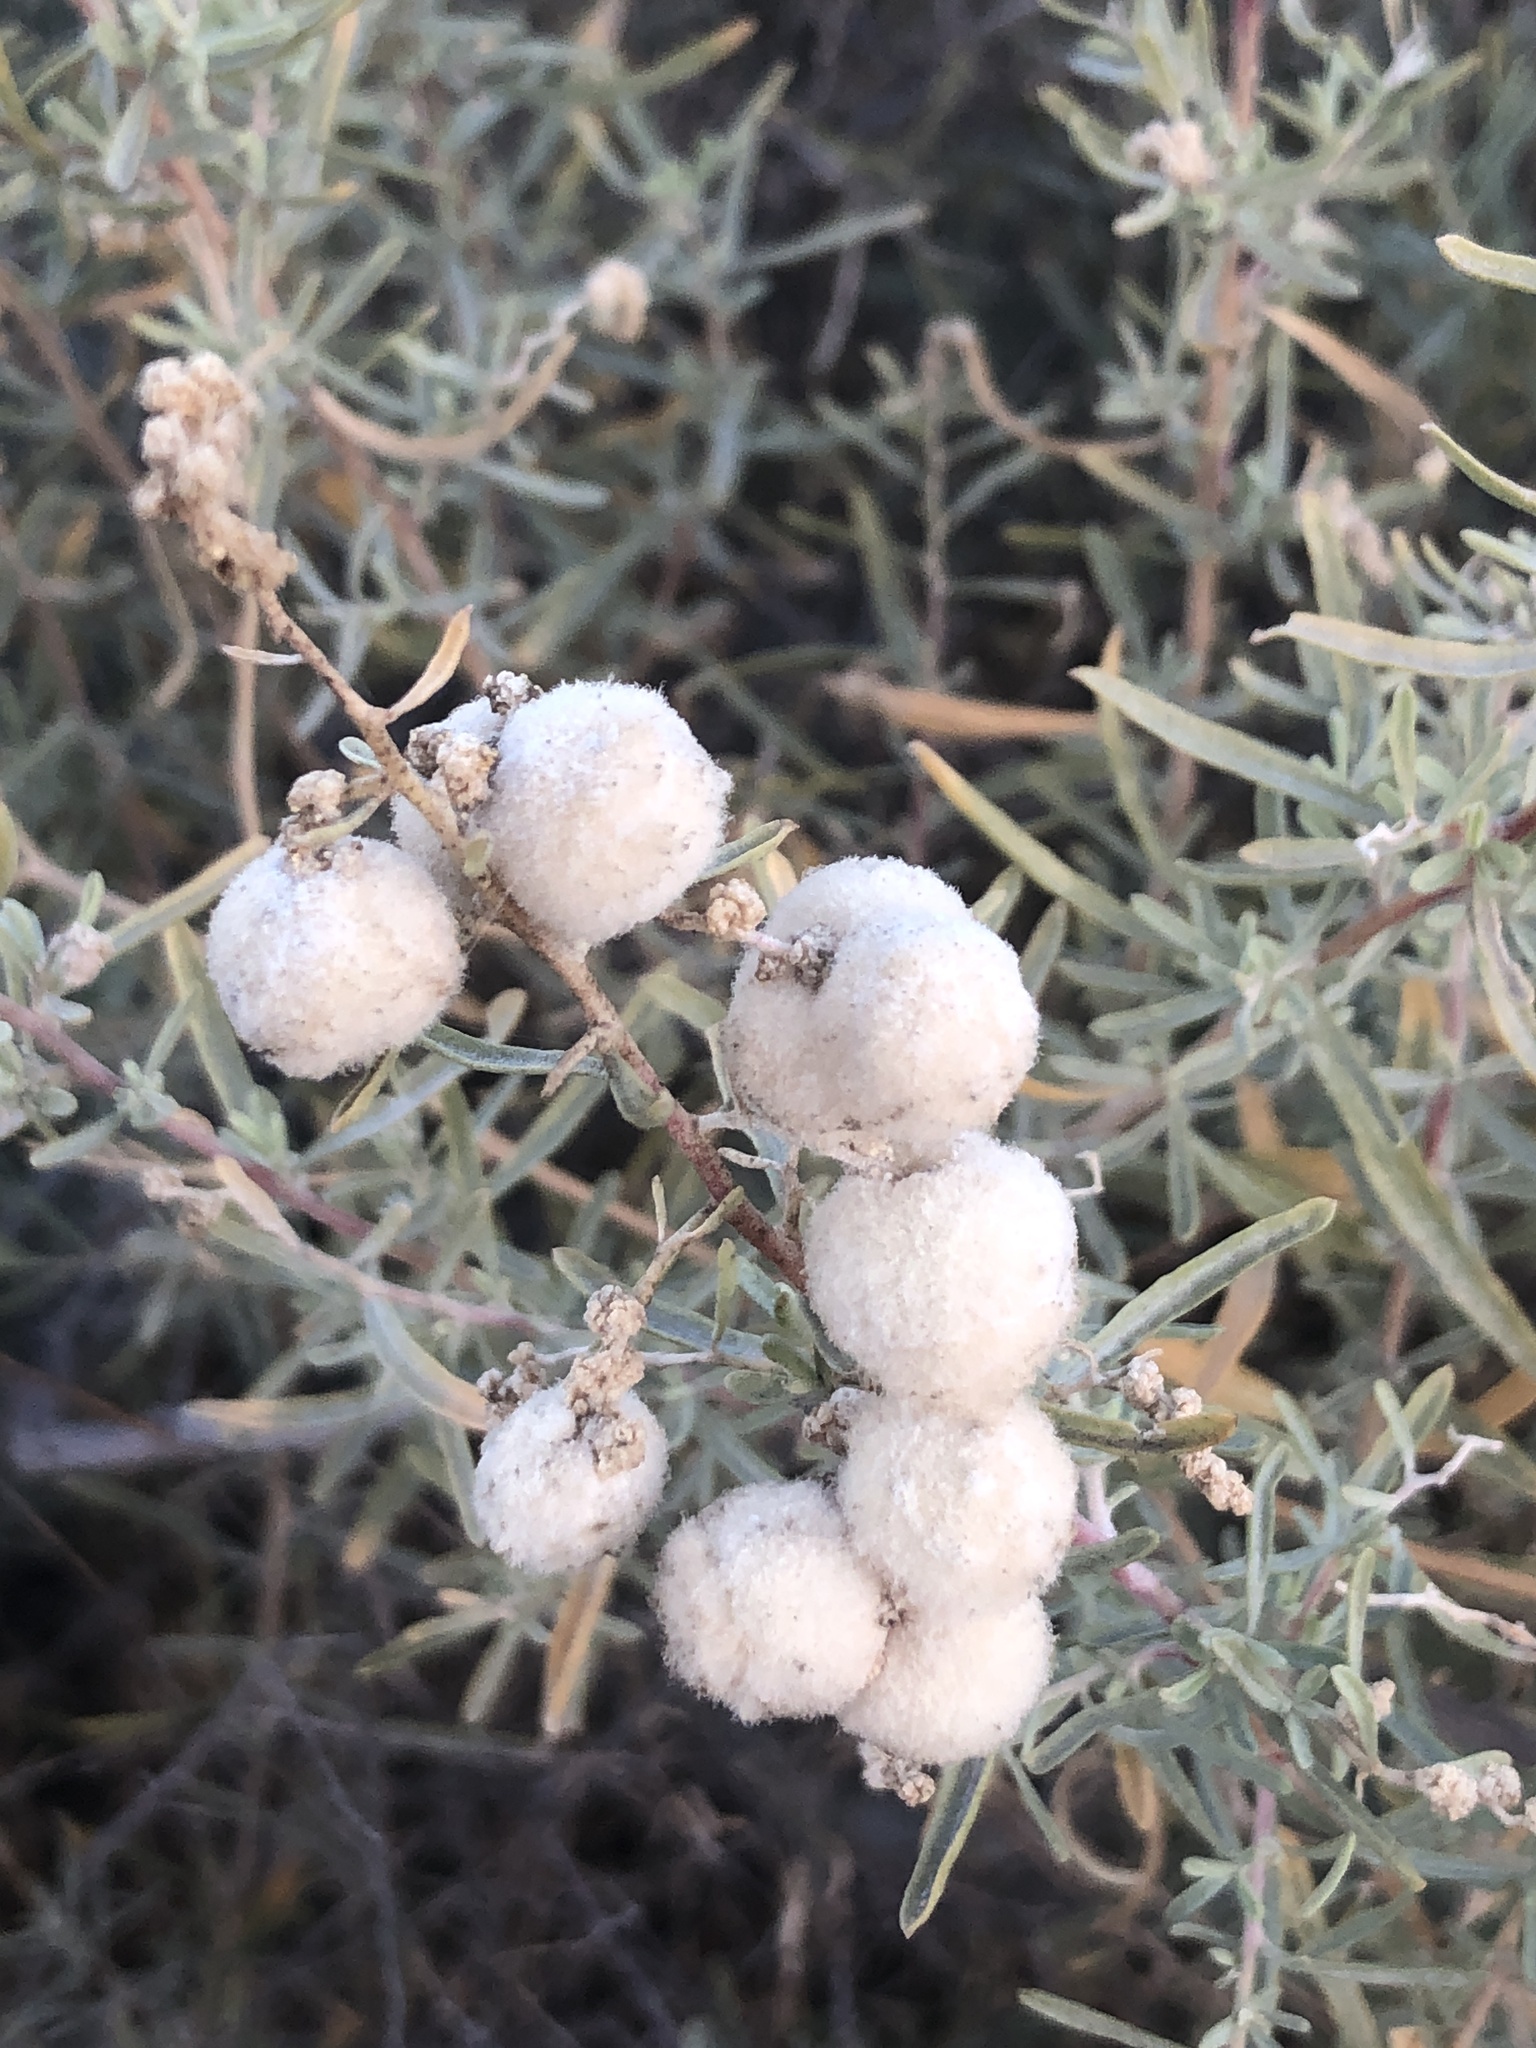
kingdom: Animalia
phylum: Arthropoda
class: Insecta
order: Diptera
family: Cecidomyiidae
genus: Asphondylia
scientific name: Asphondylia neomexicana
